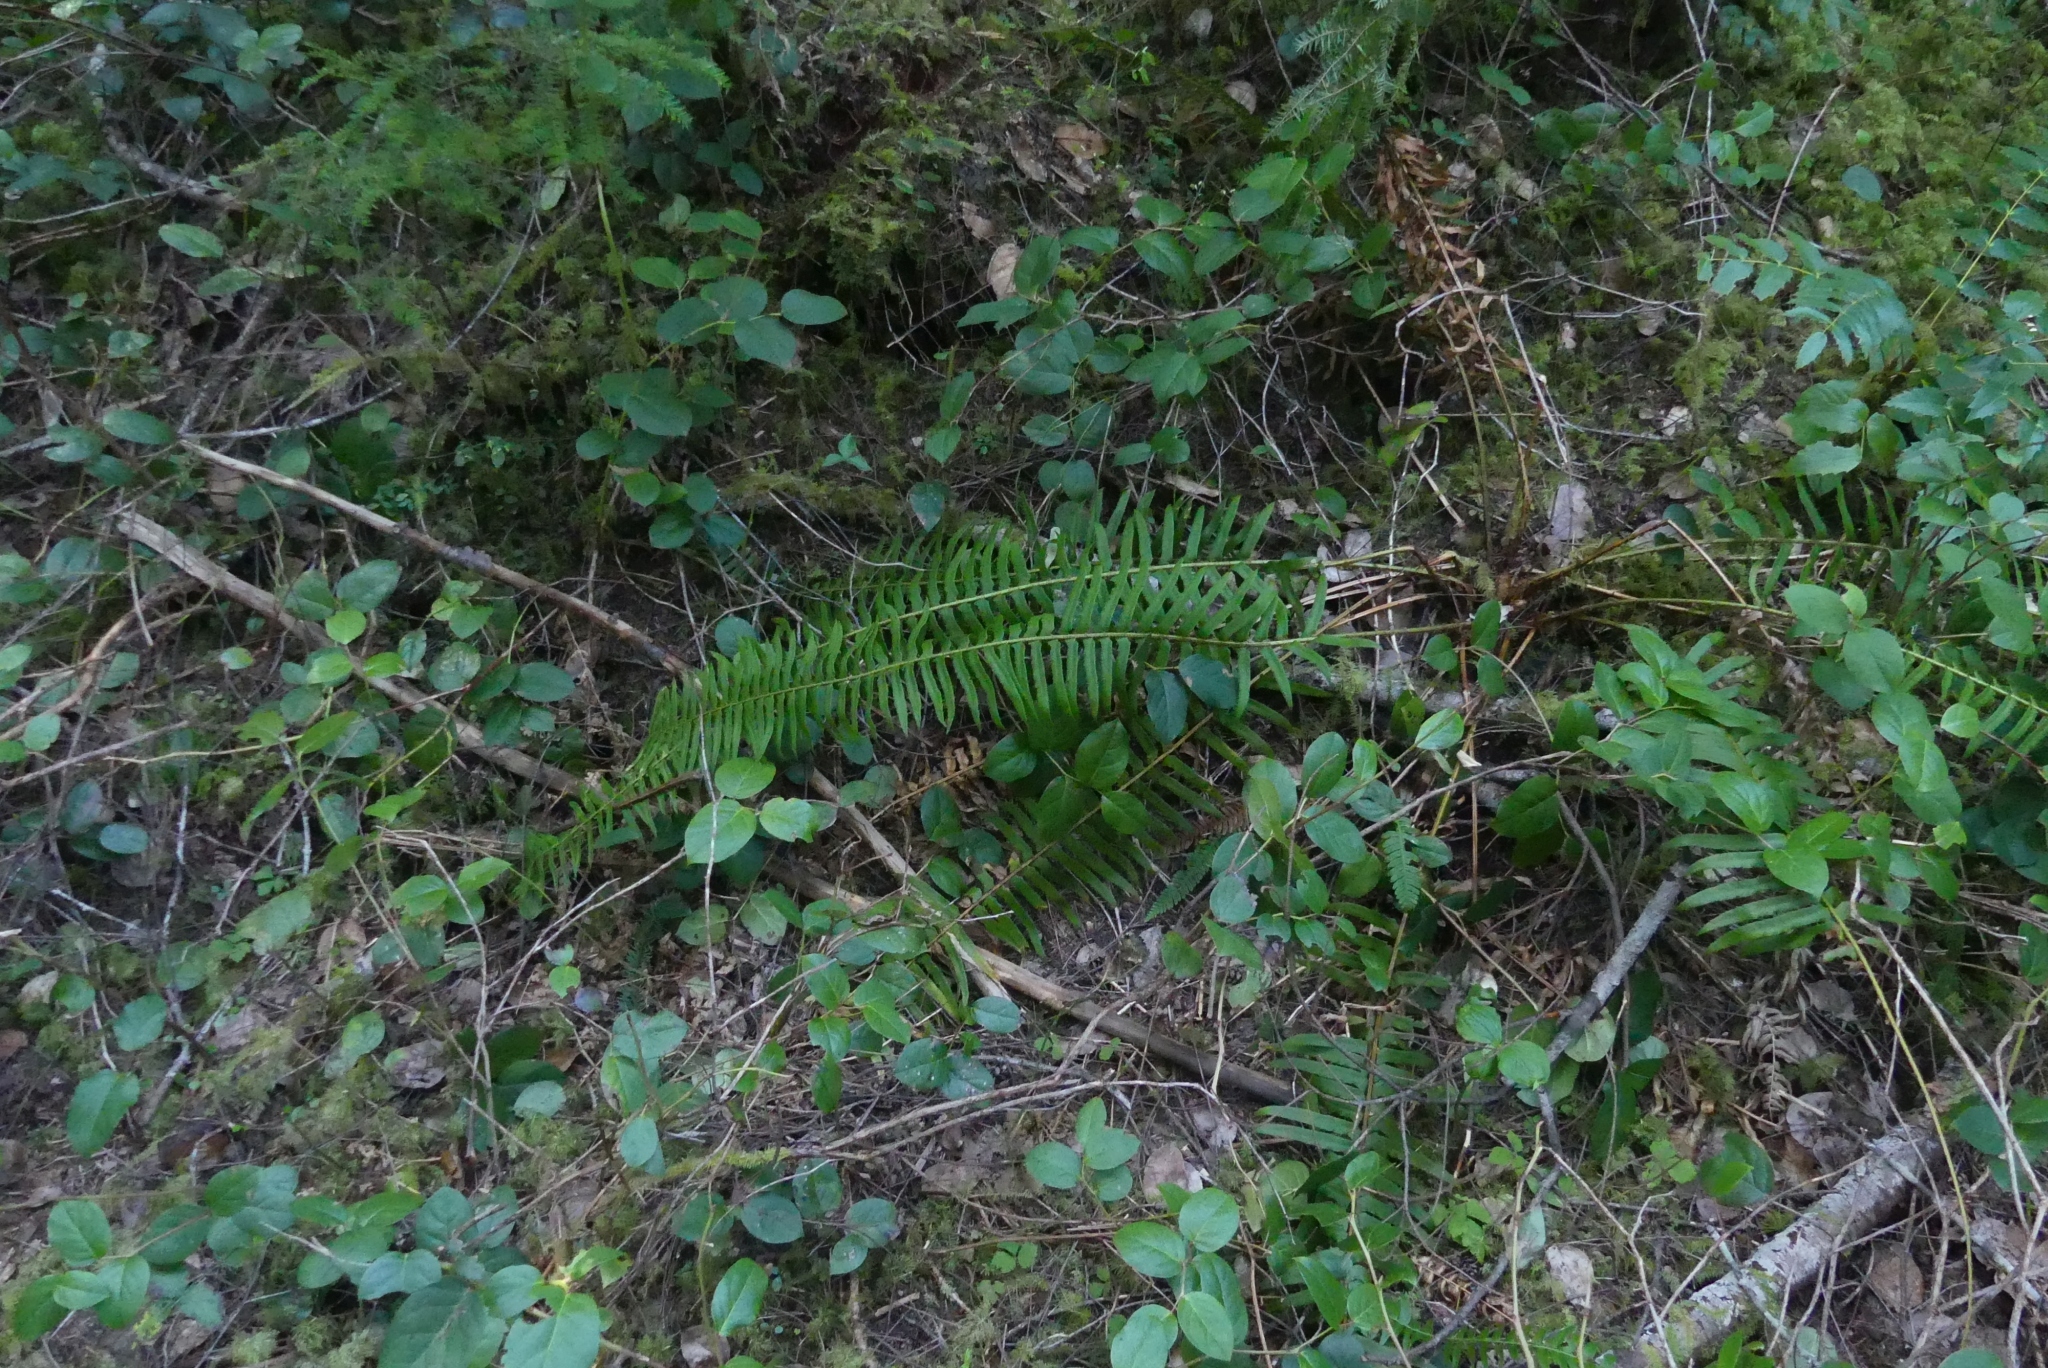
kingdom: Plantae
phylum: Tracheophyta
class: Polypodiopsida
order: Polypodiales
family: Dryopteridaceae
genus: Polystichum
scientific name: Polystichum munitum
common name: Western sword-fern
